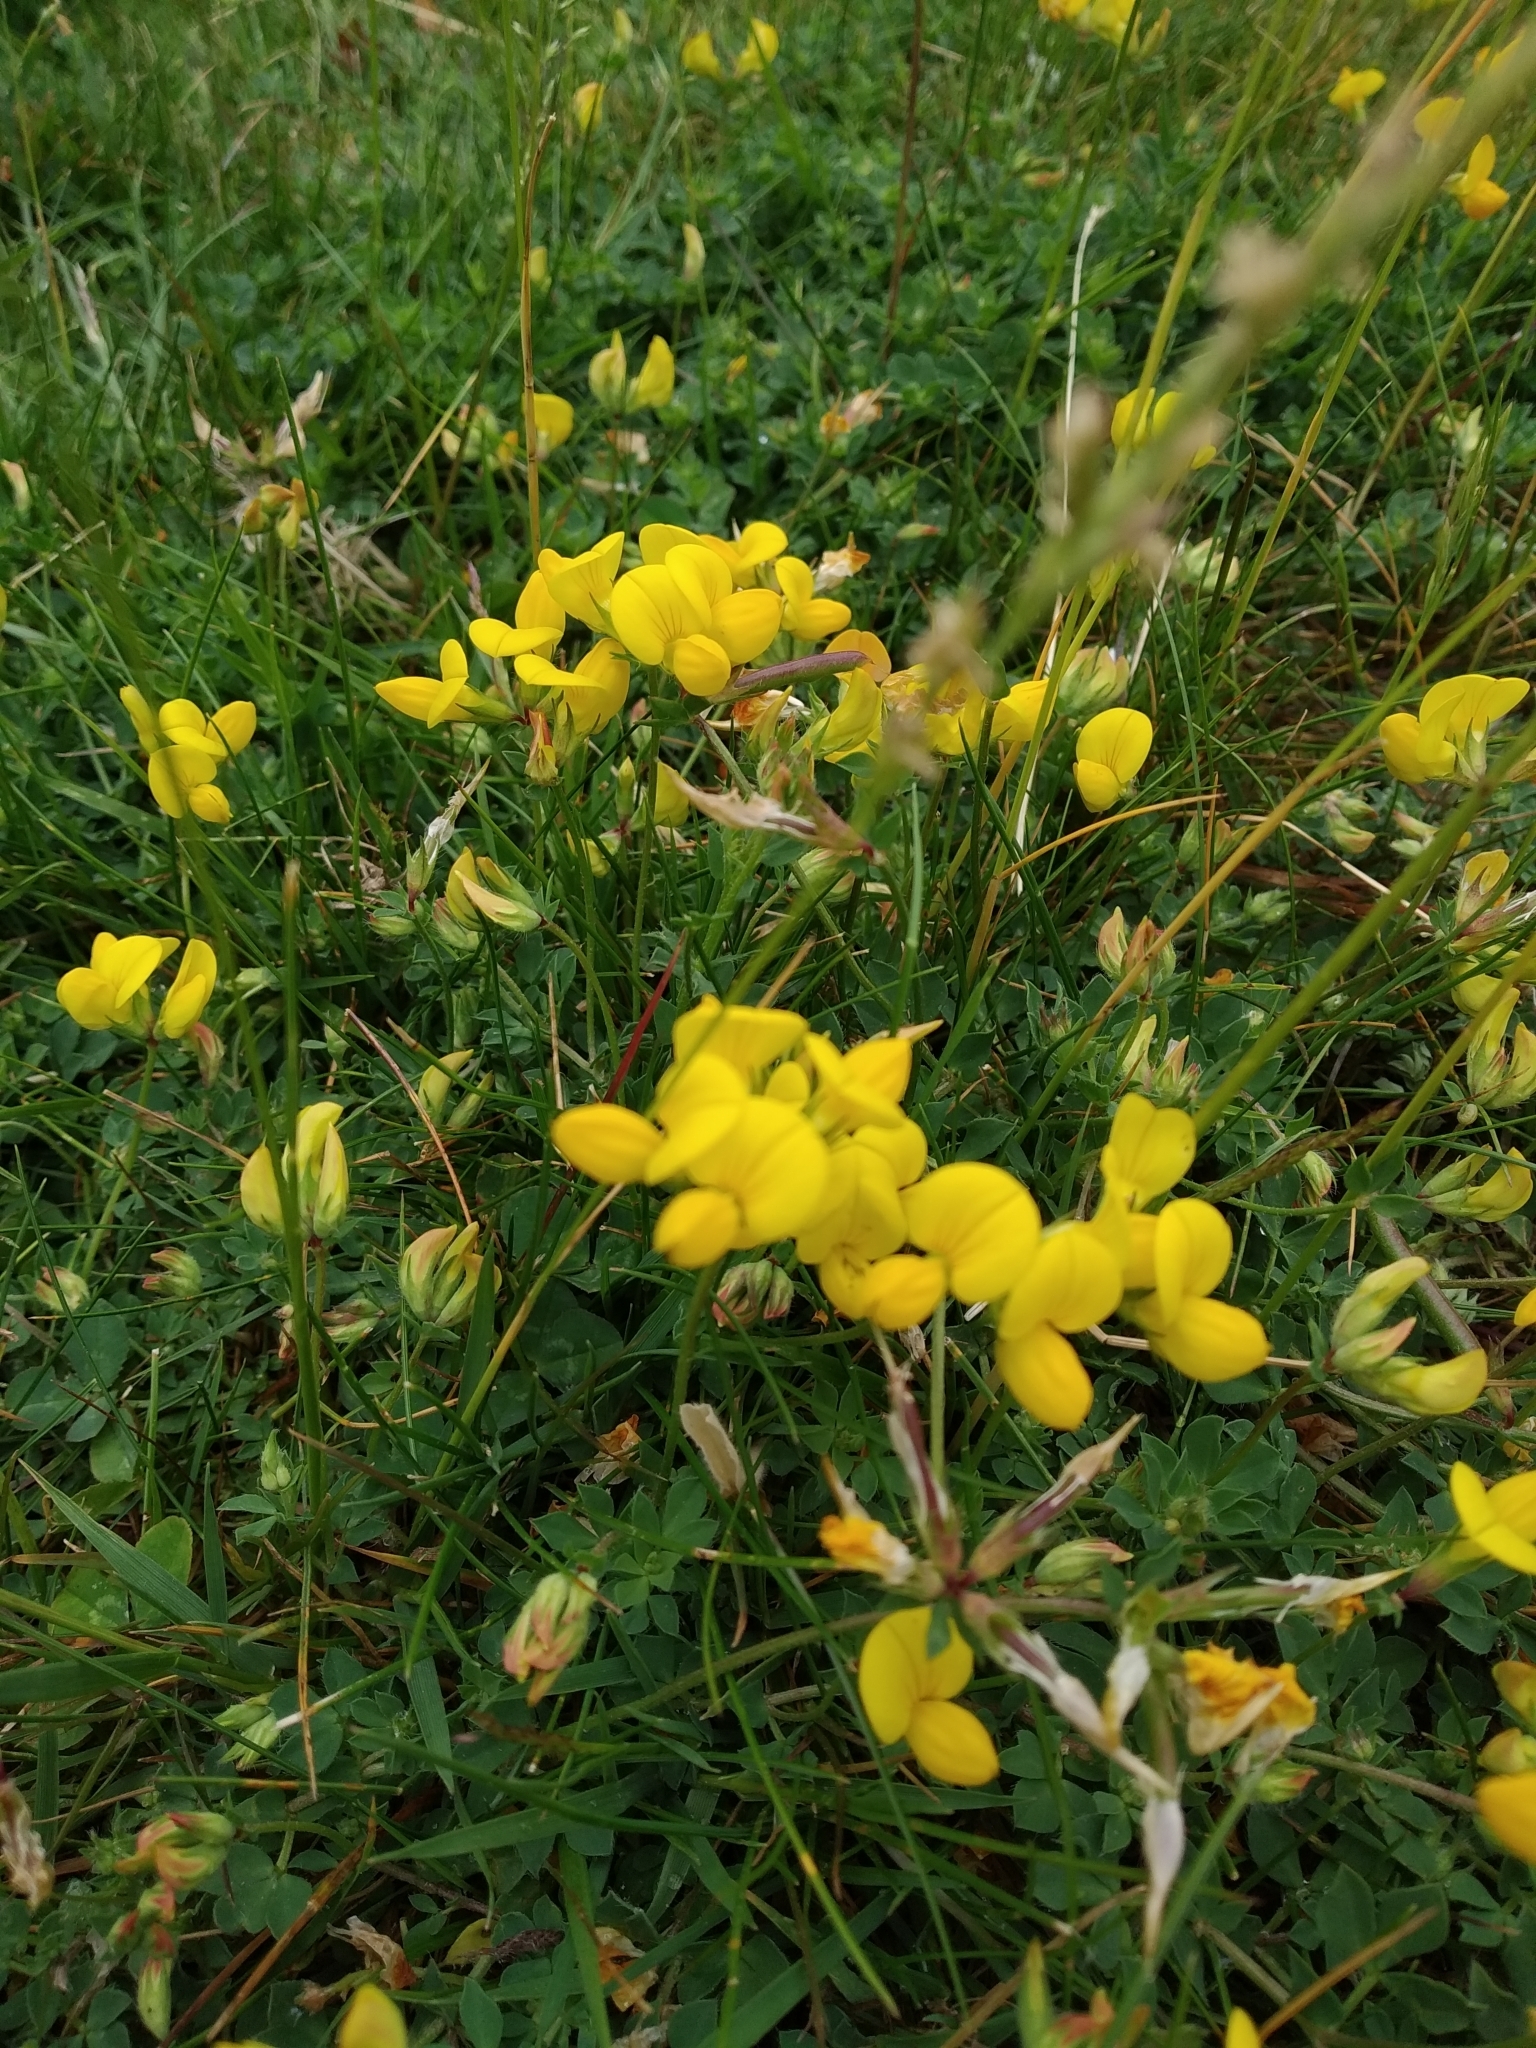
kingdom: Plantae
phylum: Tracheophyta
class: Magnoliopsida
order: Fabales
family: Fabaceae
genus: Lotus
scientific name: Lotus corniculatus
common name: Common bird's-foot-trefoil
